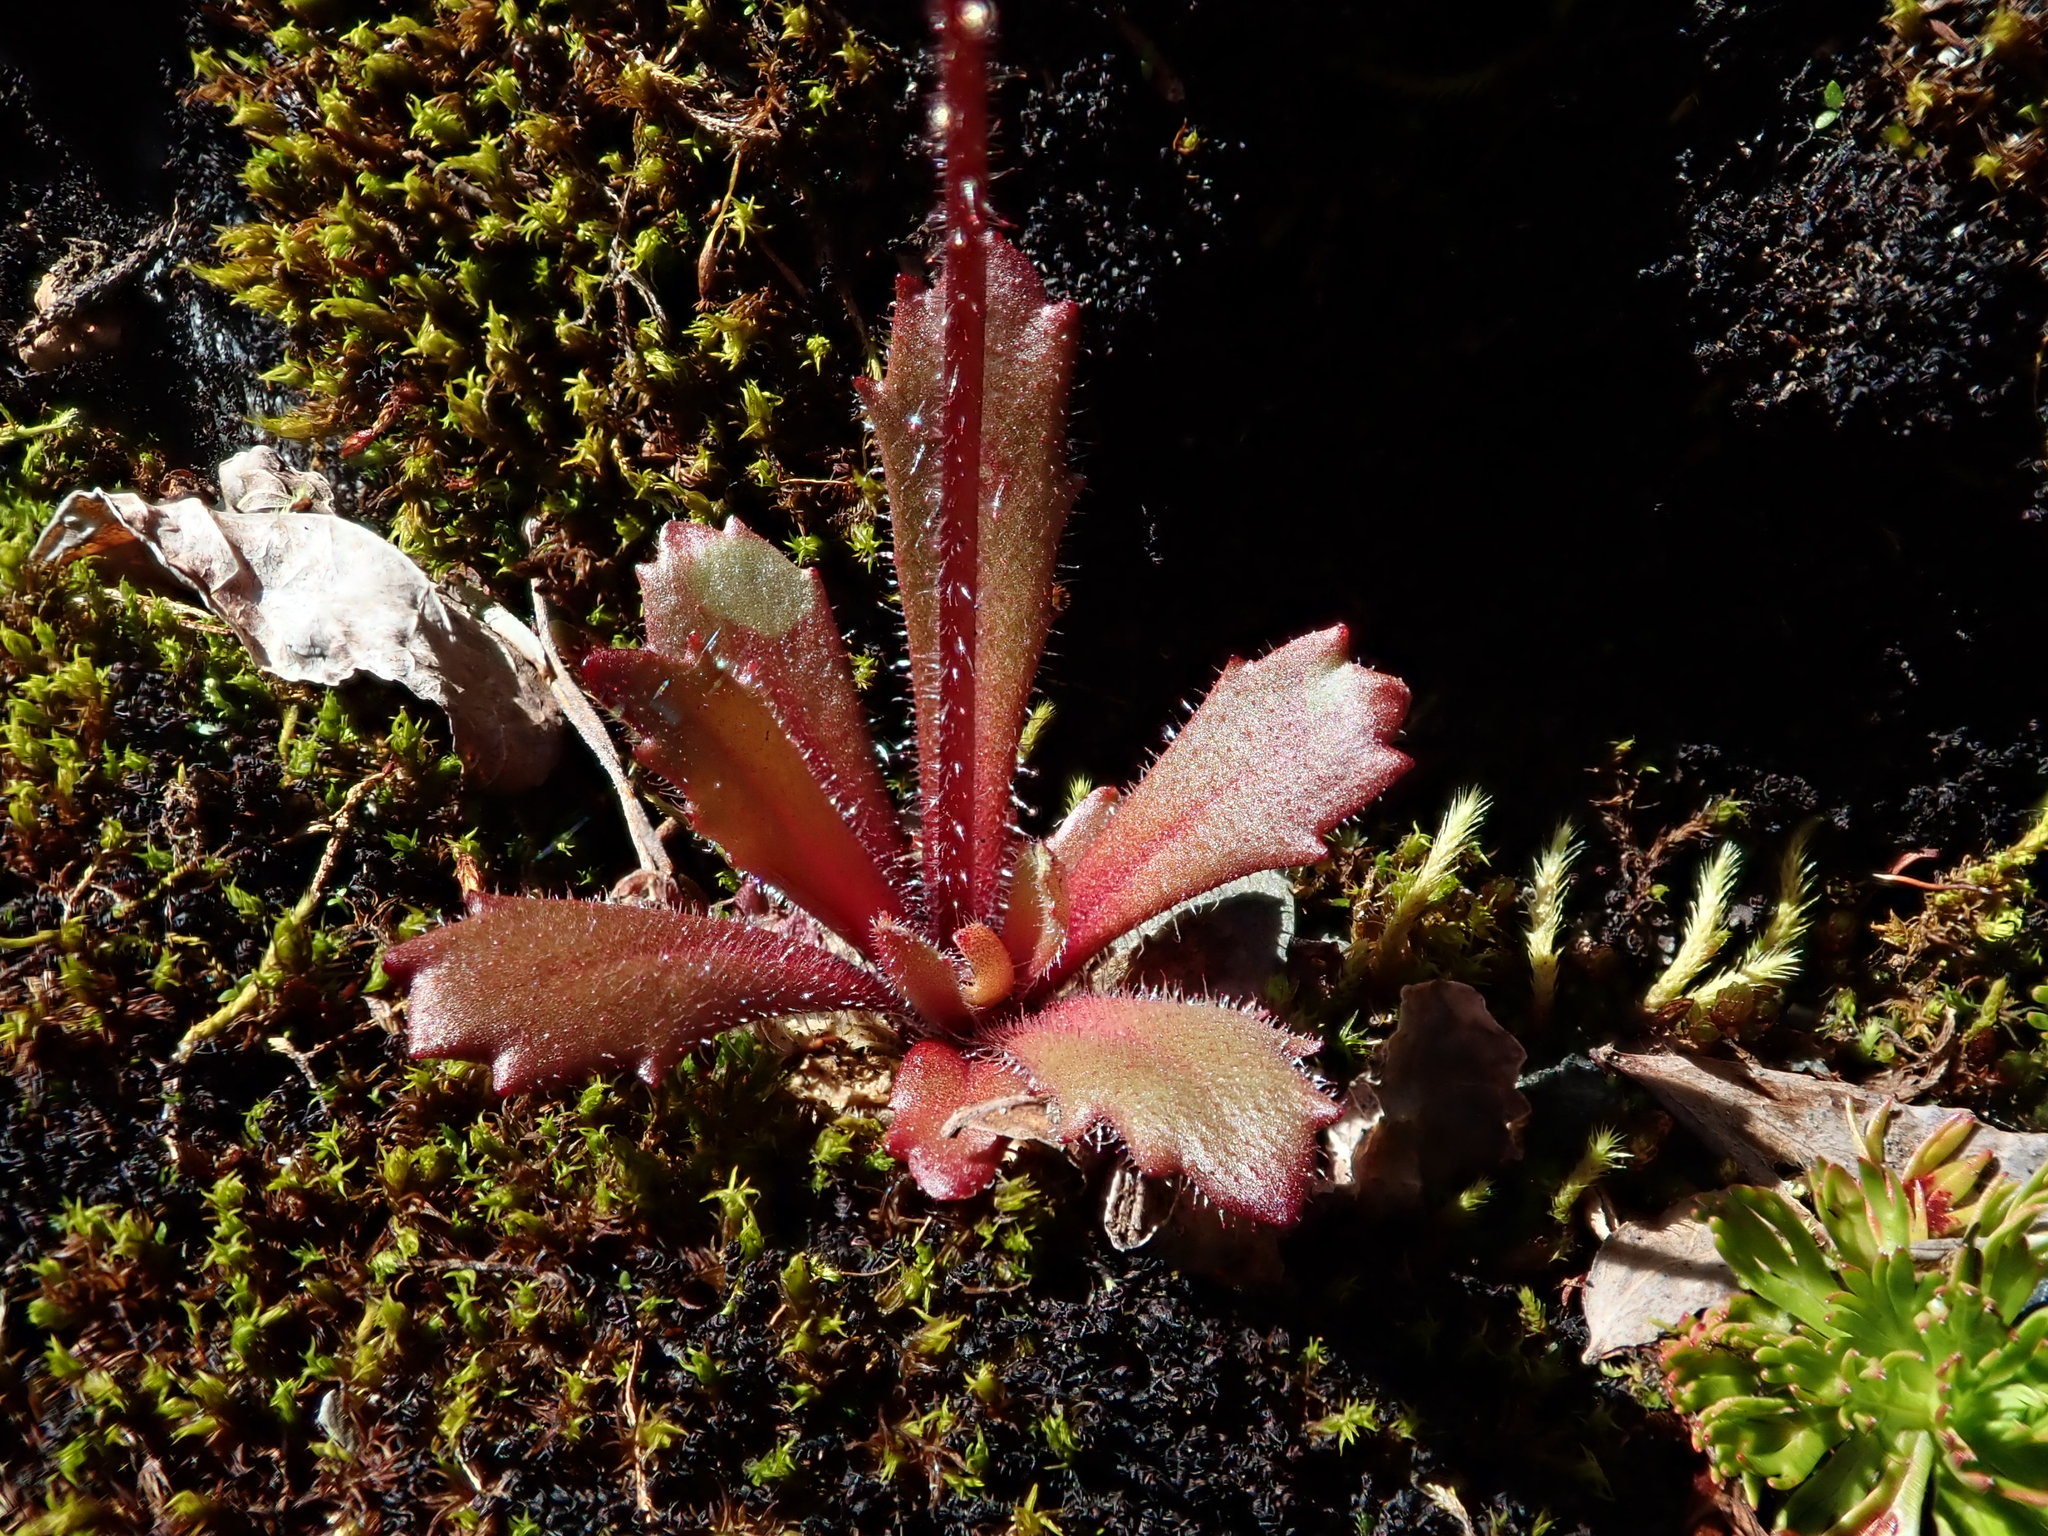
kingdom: Plantae
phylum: Tracheophyta
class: Magnoliopsida
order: Saxifragales
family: Saxifragaceae
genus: Micranthes
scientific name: Micranthes ferruginea
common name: Rusty saxifrage
